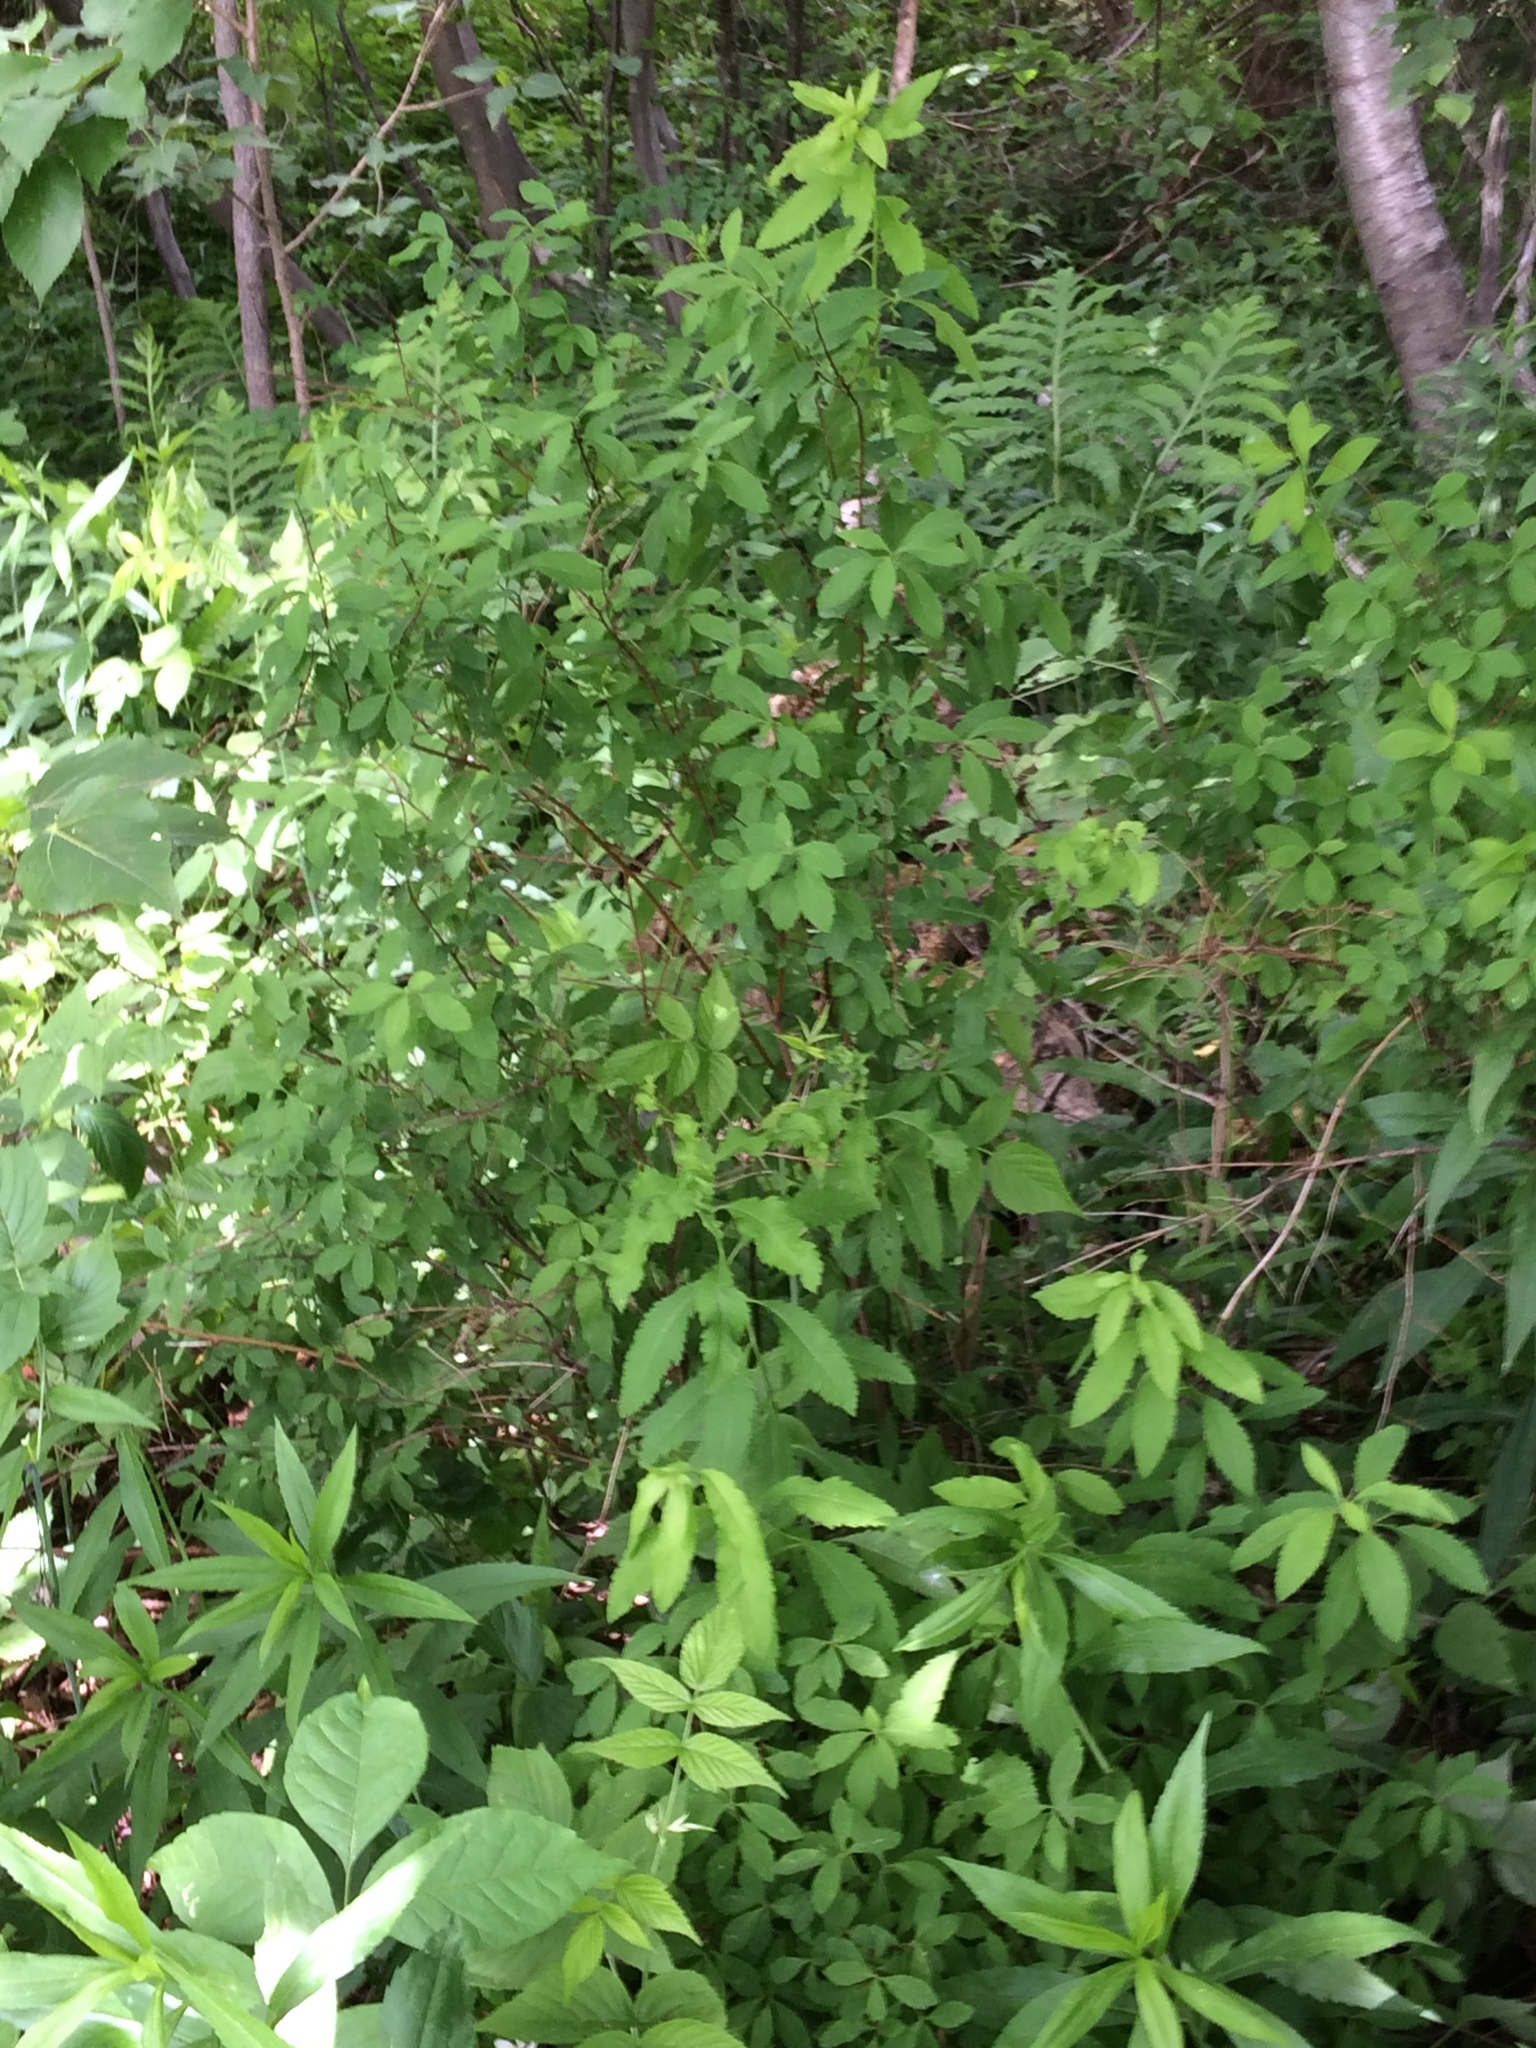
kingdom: Plantae
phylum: Tracheophyta
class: Magnoliopsida
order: Rosales
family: Rosaceae
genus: Spiraea
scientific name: Spiraea alba
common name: Pale bridewort
